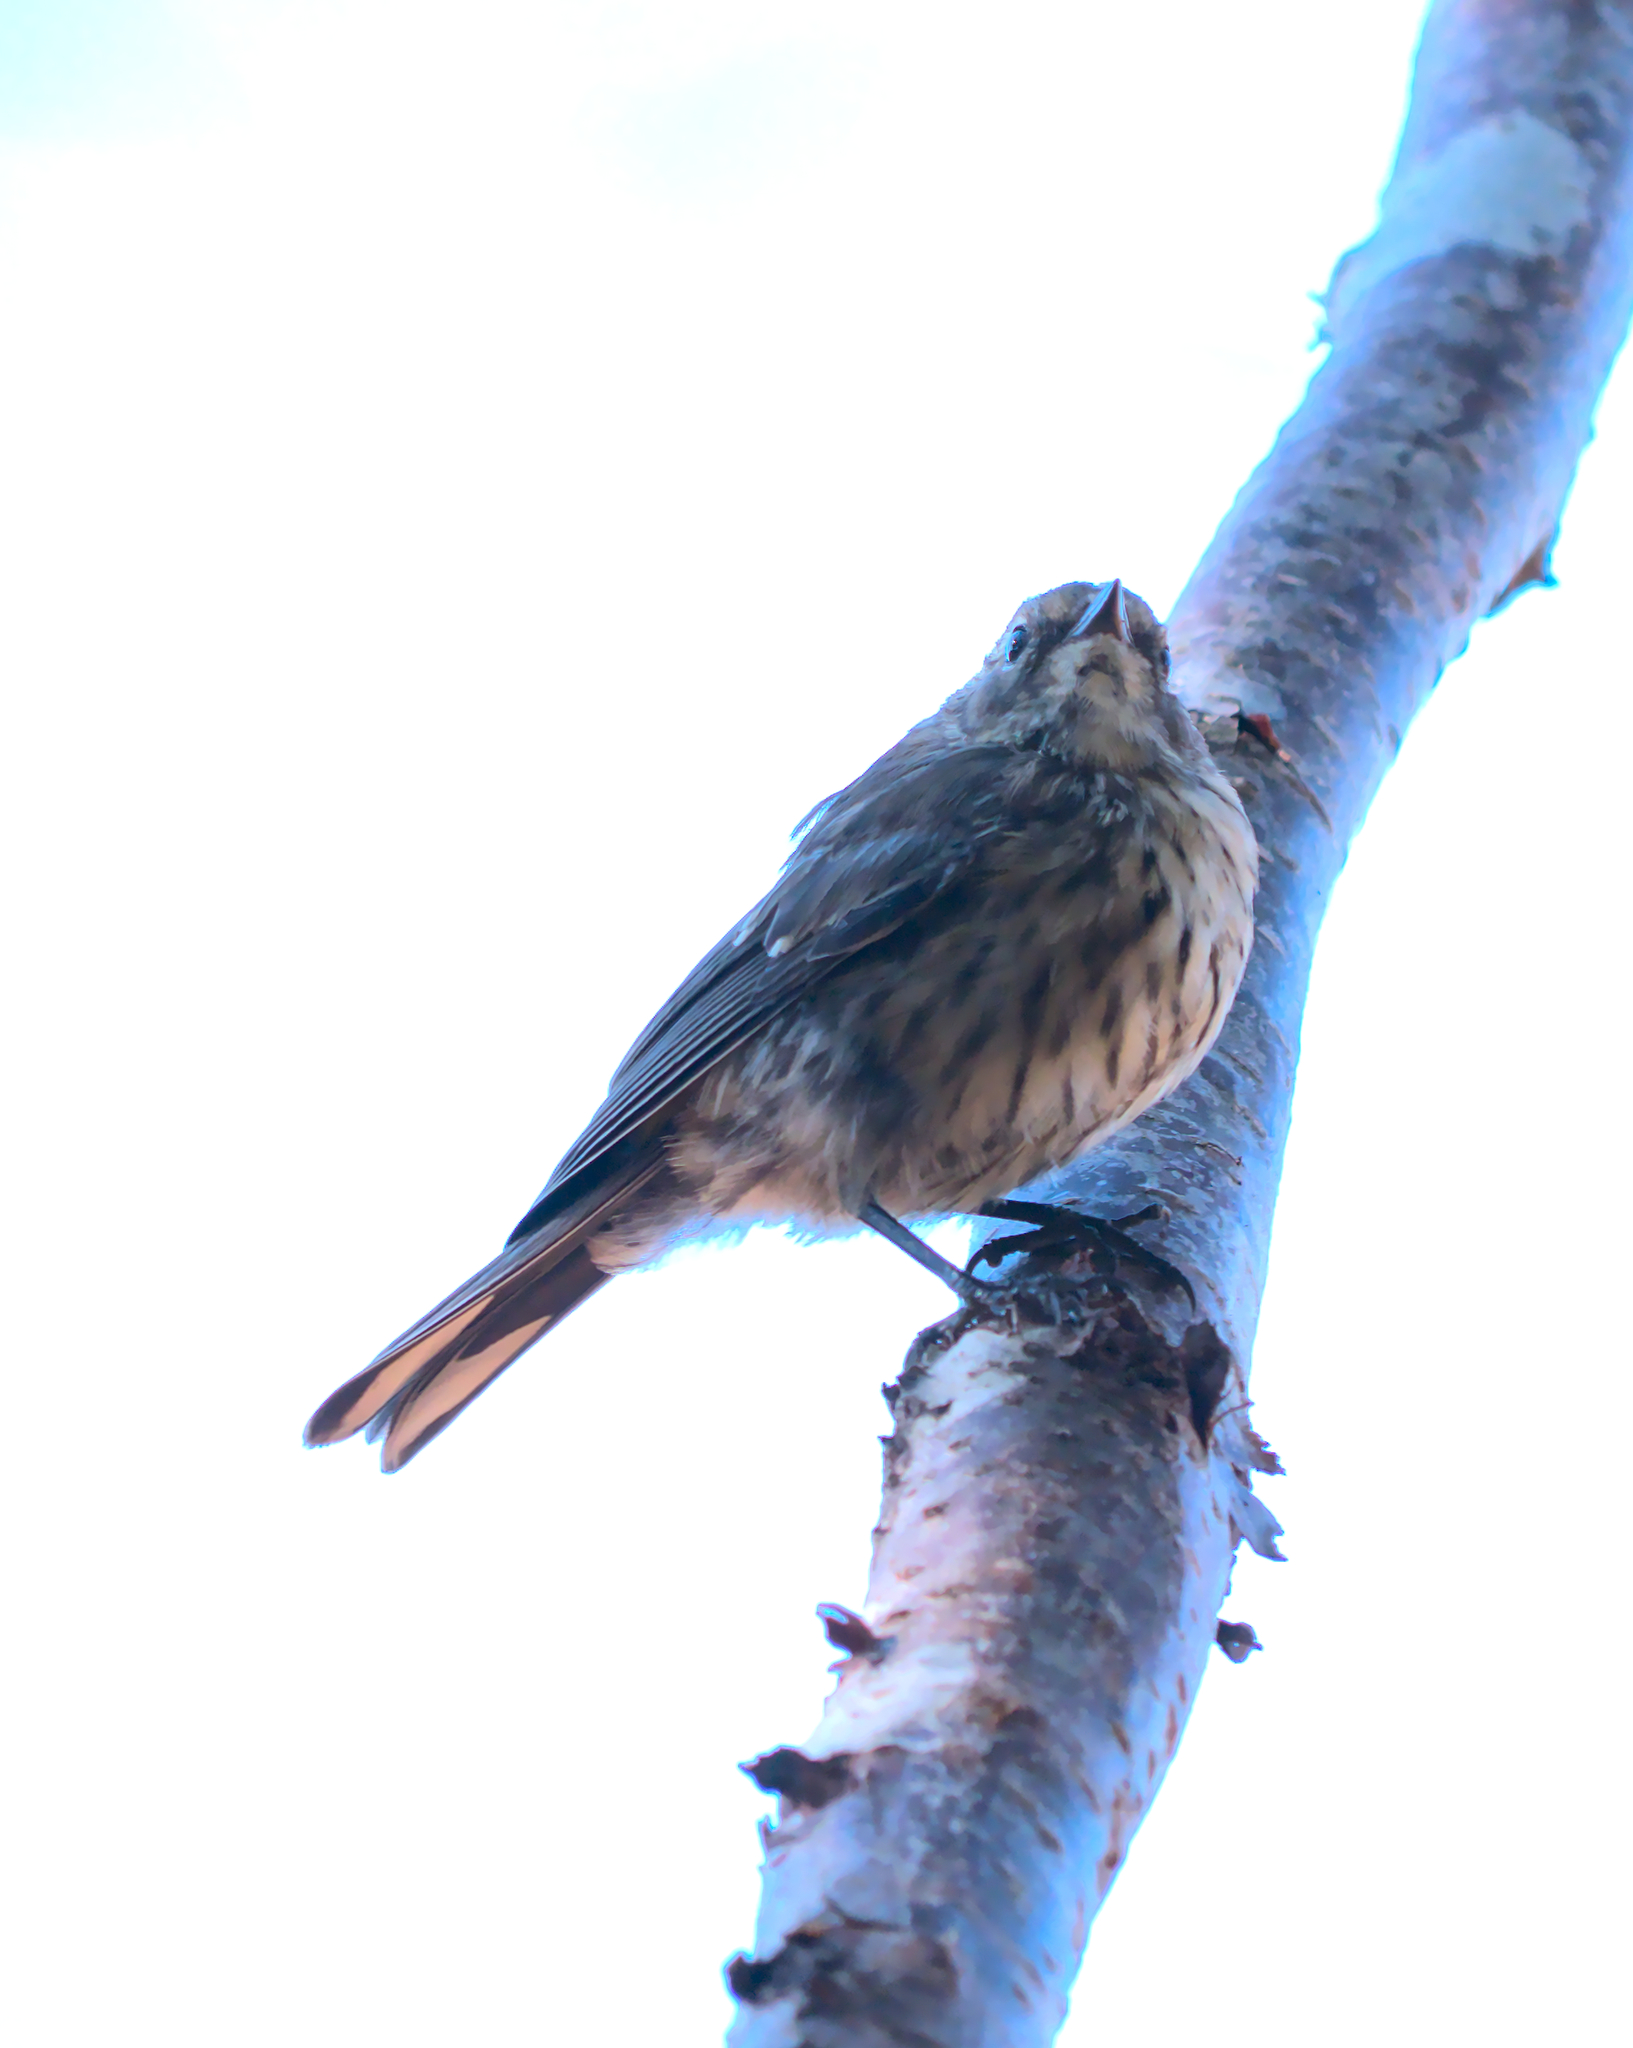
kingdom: Animalia
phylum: Chordata
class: Aves
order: Passeriformes
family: Parulidae
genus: Setophaga
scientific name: Setophaga coronata
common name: Myrtle warbler
